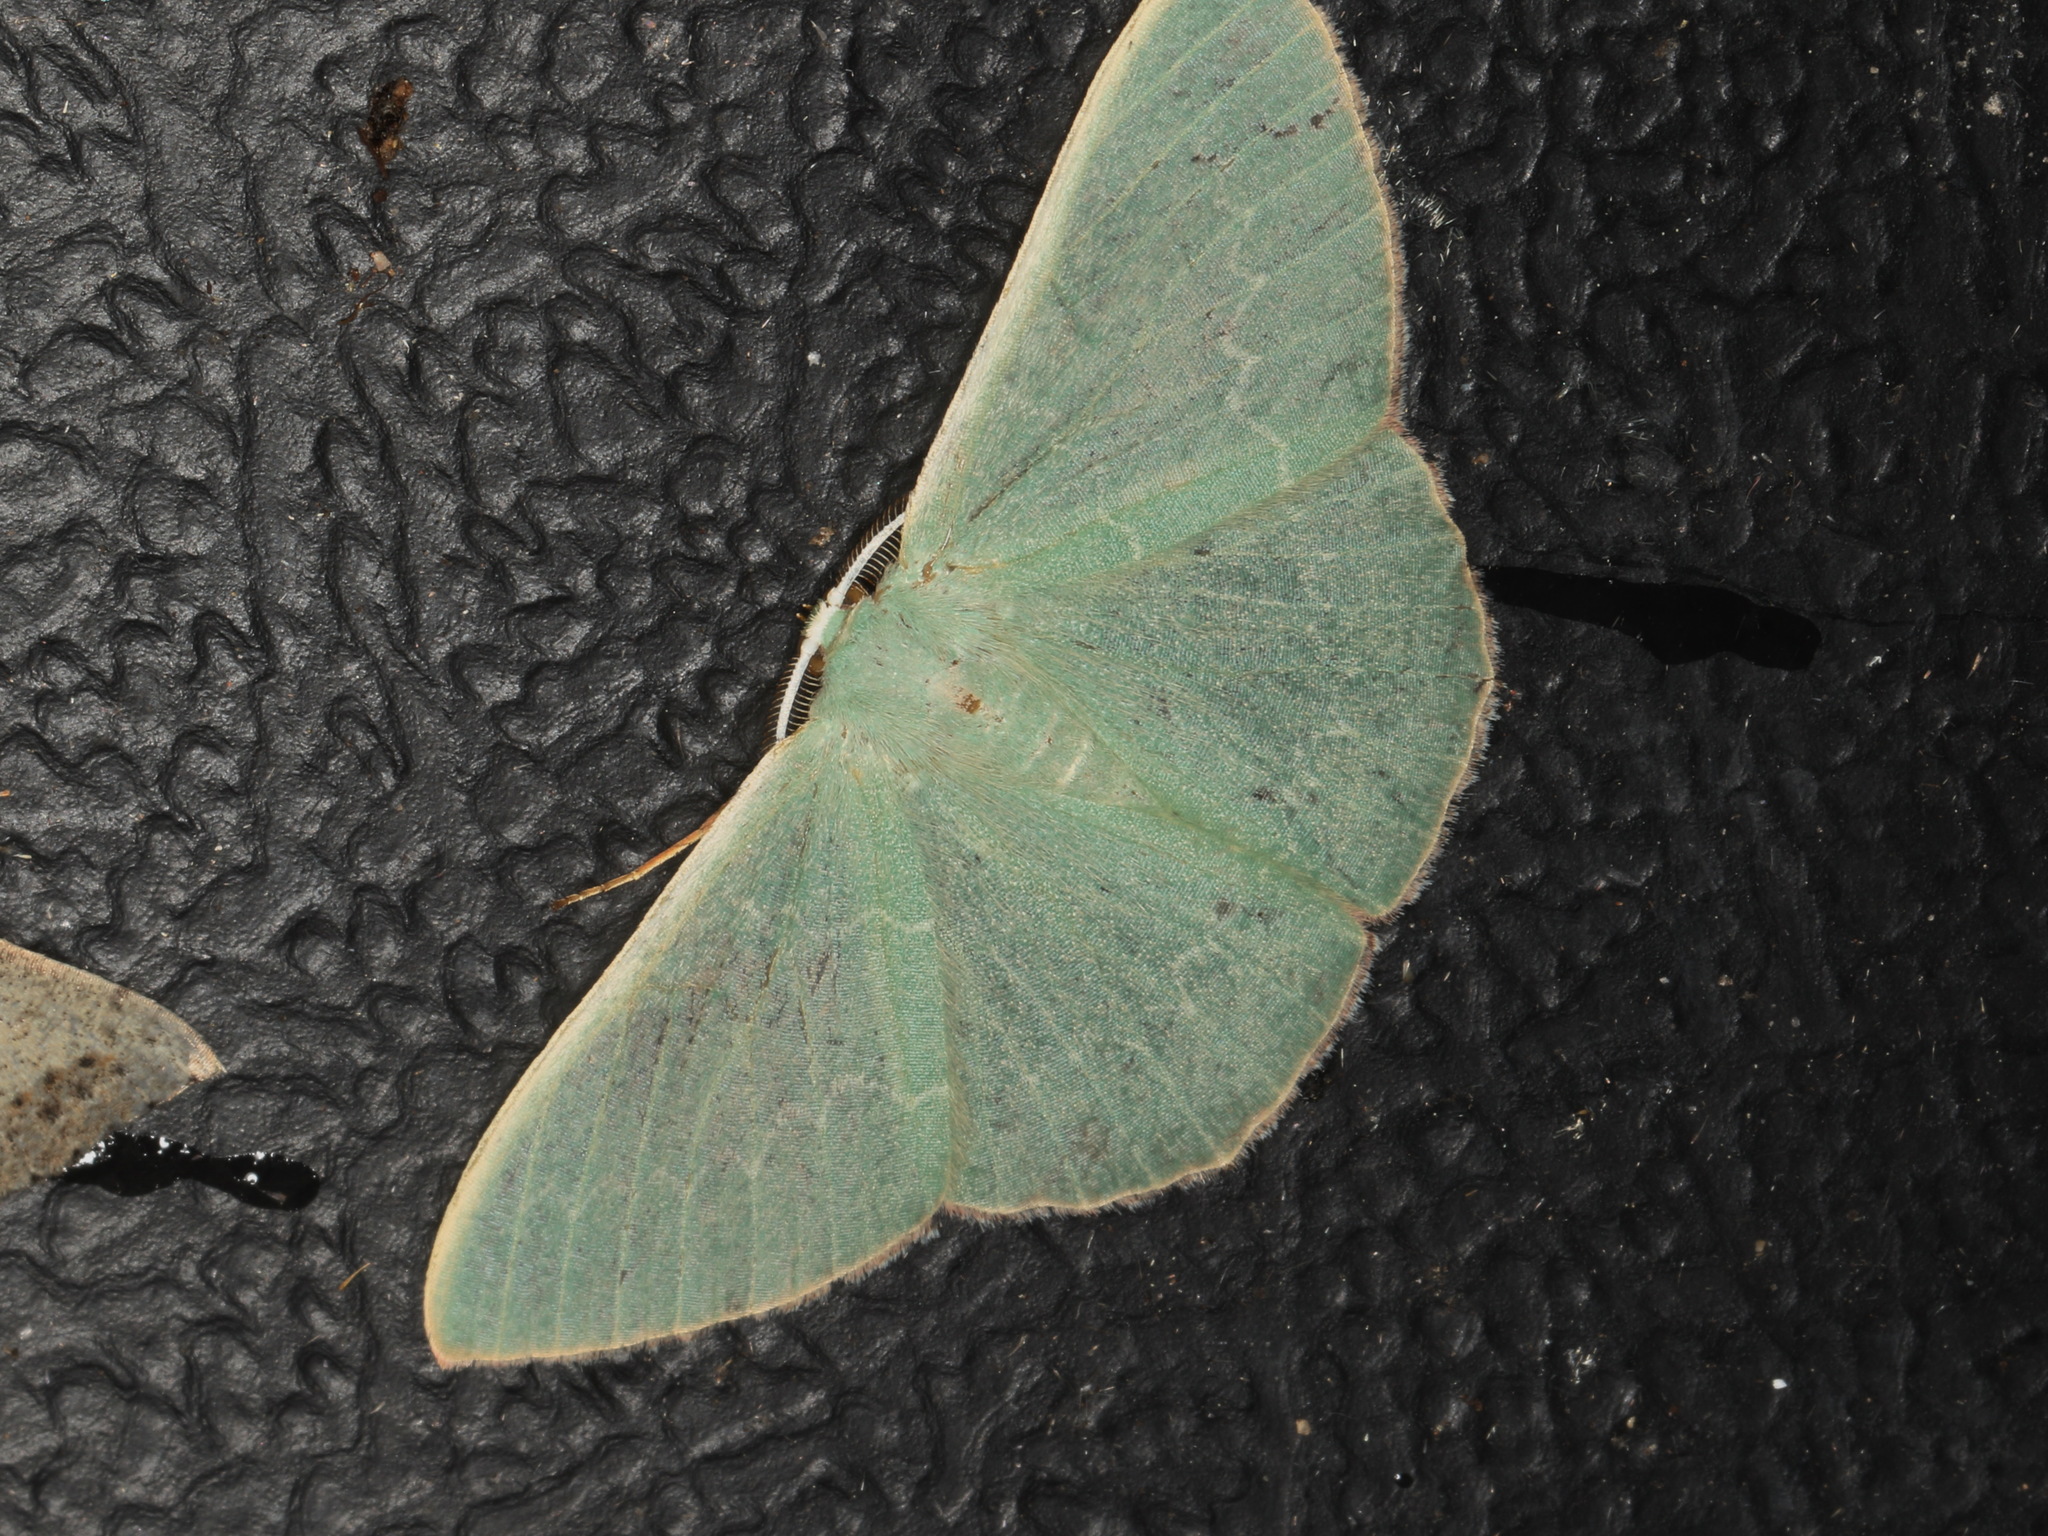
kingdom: Animalia
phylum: Arthropoda
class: Insecta
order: Lepidoptera
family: Geometridae
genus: Prasinocyma
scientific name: Prasinocyma semicrocea
